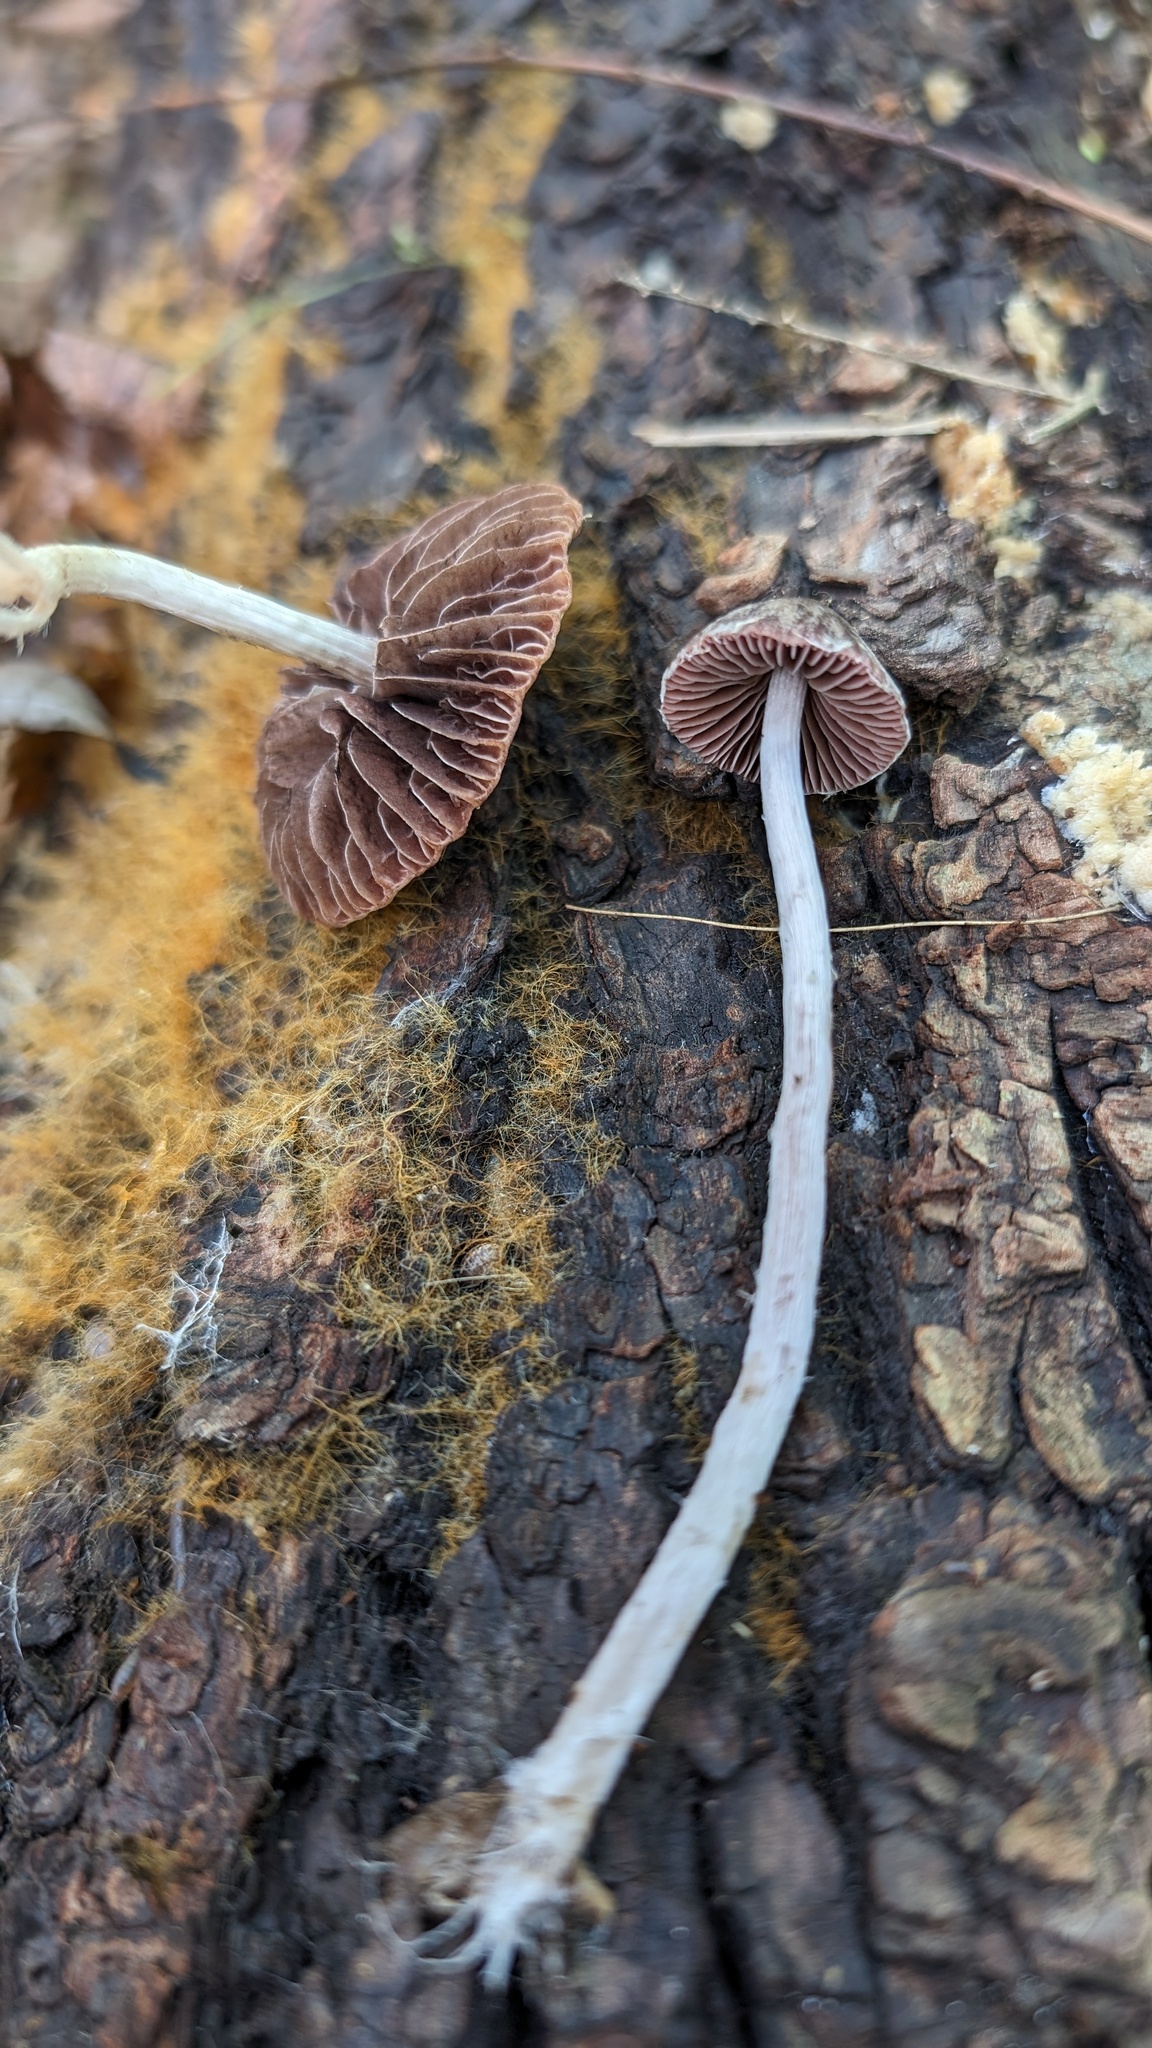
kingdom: Fungi
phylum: Basidiomycota
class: Agaricomycetes
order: Agaricales
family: Psathyrellaceae
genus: Psathyrella
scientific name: Psathyrella bipellis
